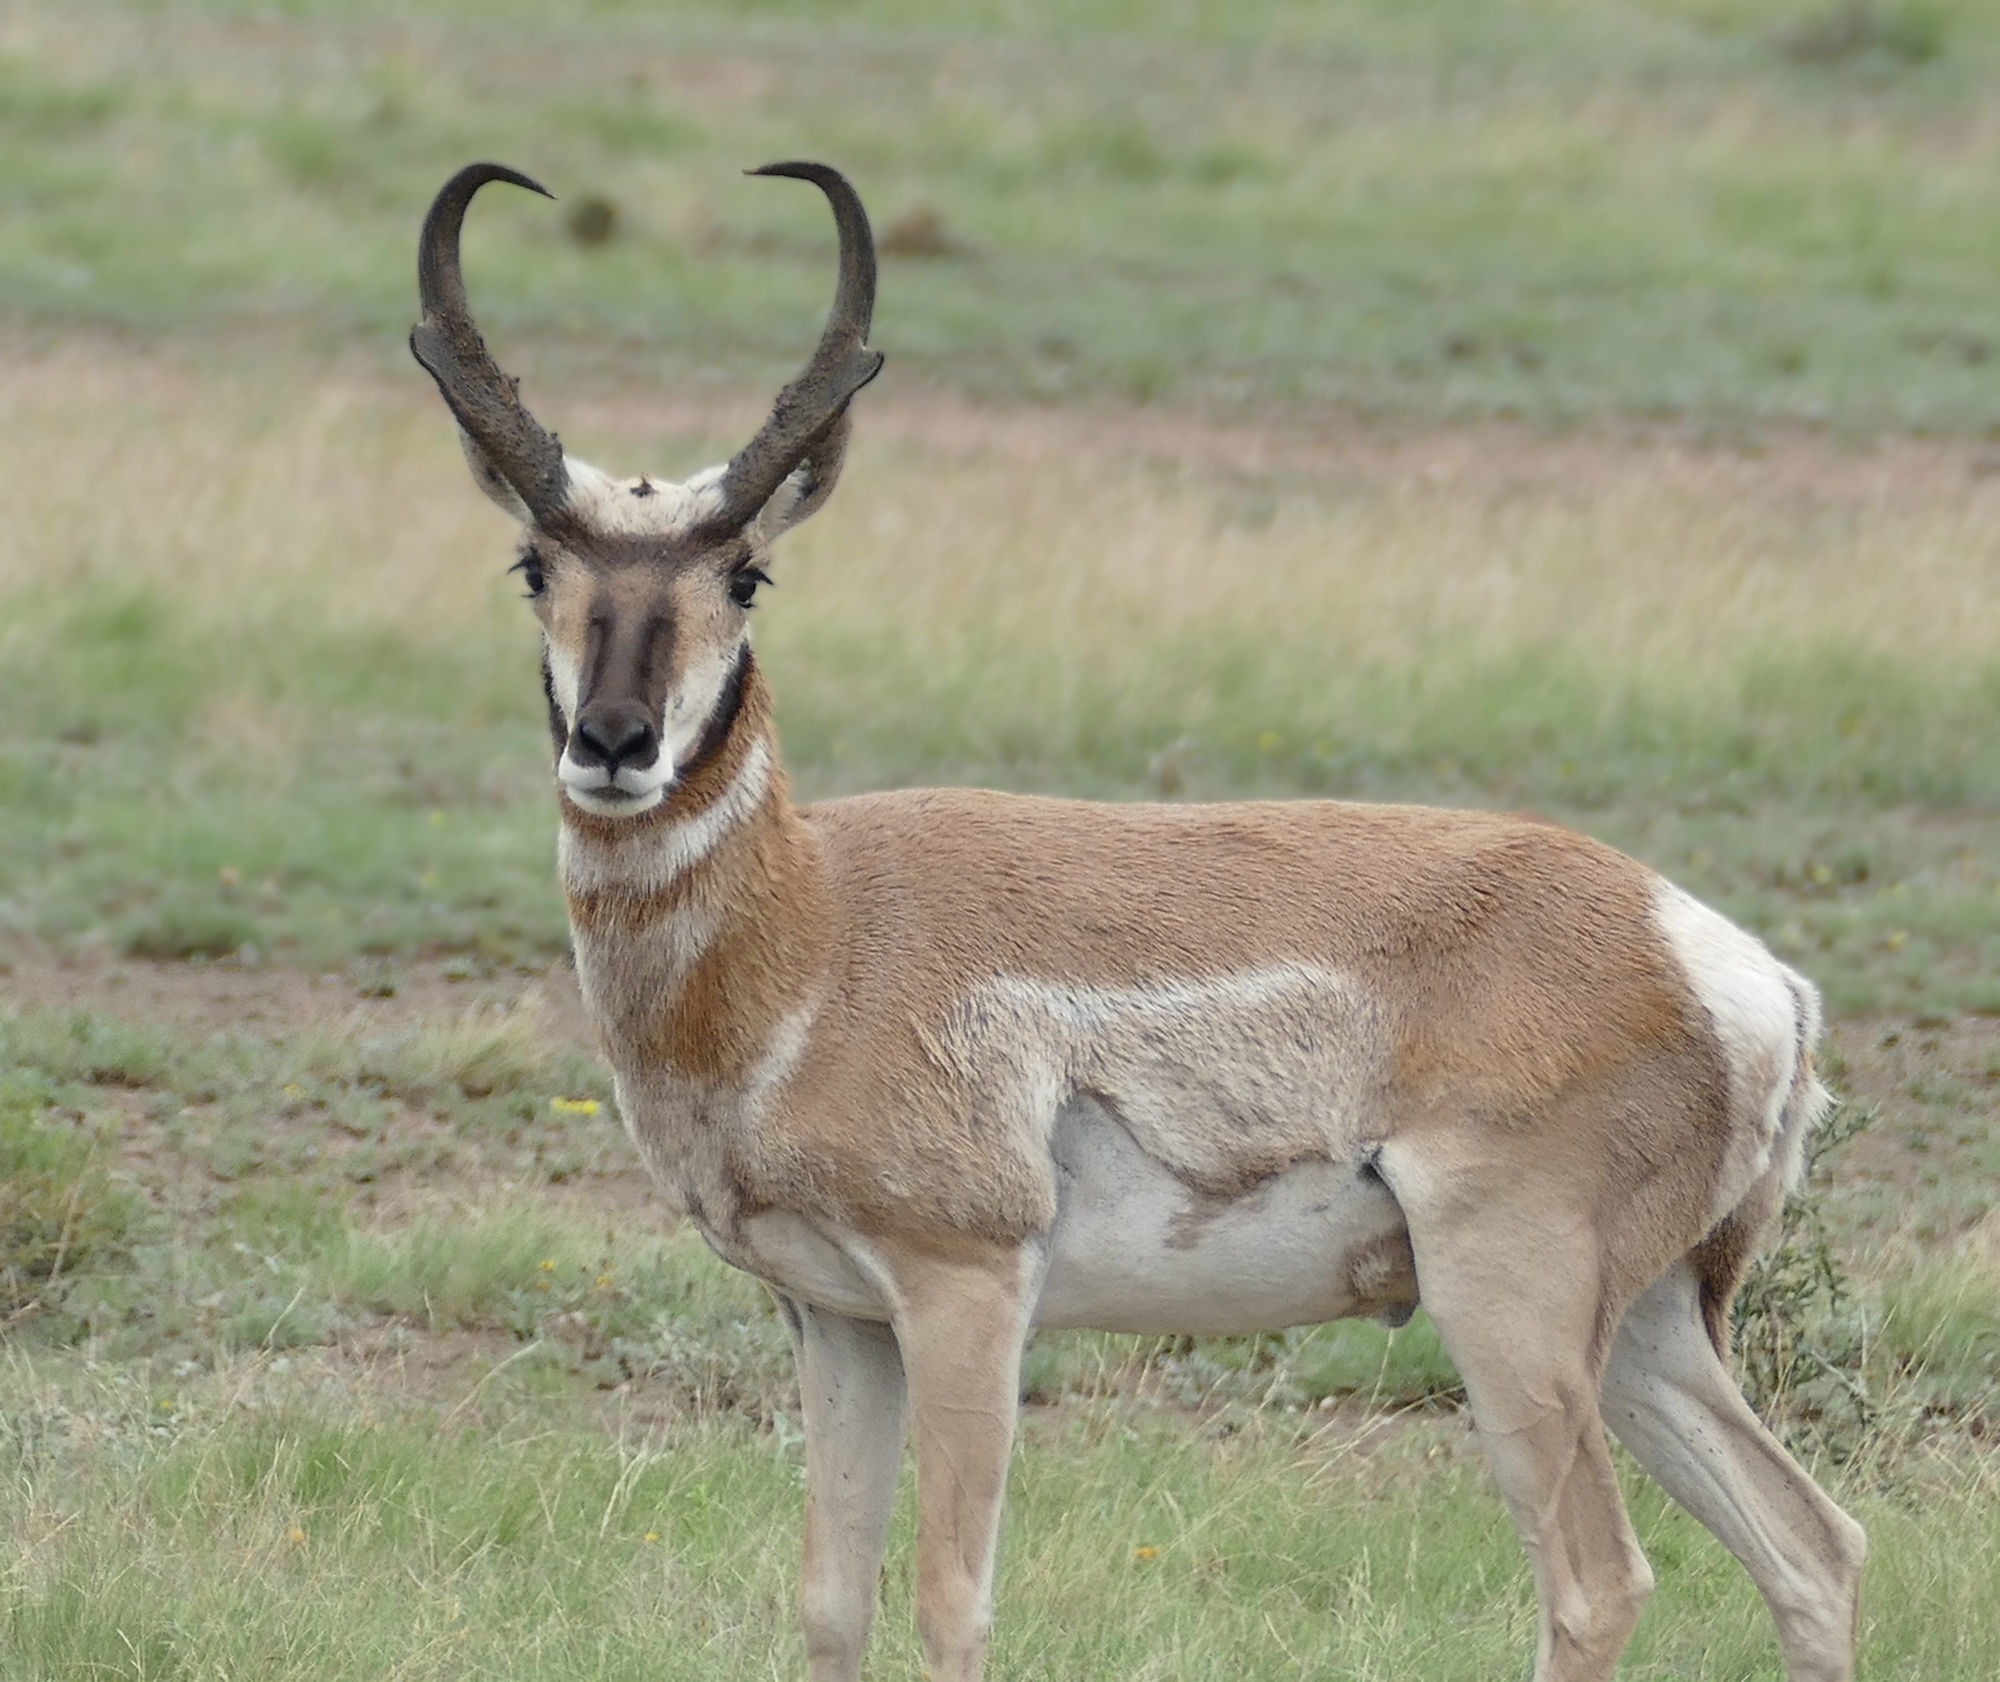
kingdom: Animalia
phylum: Chordata
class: Mammalia
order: Artiodactyla
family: Antilocapridae
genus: Antilocapra
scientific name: Antilocapra americana
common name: Pronghorn
